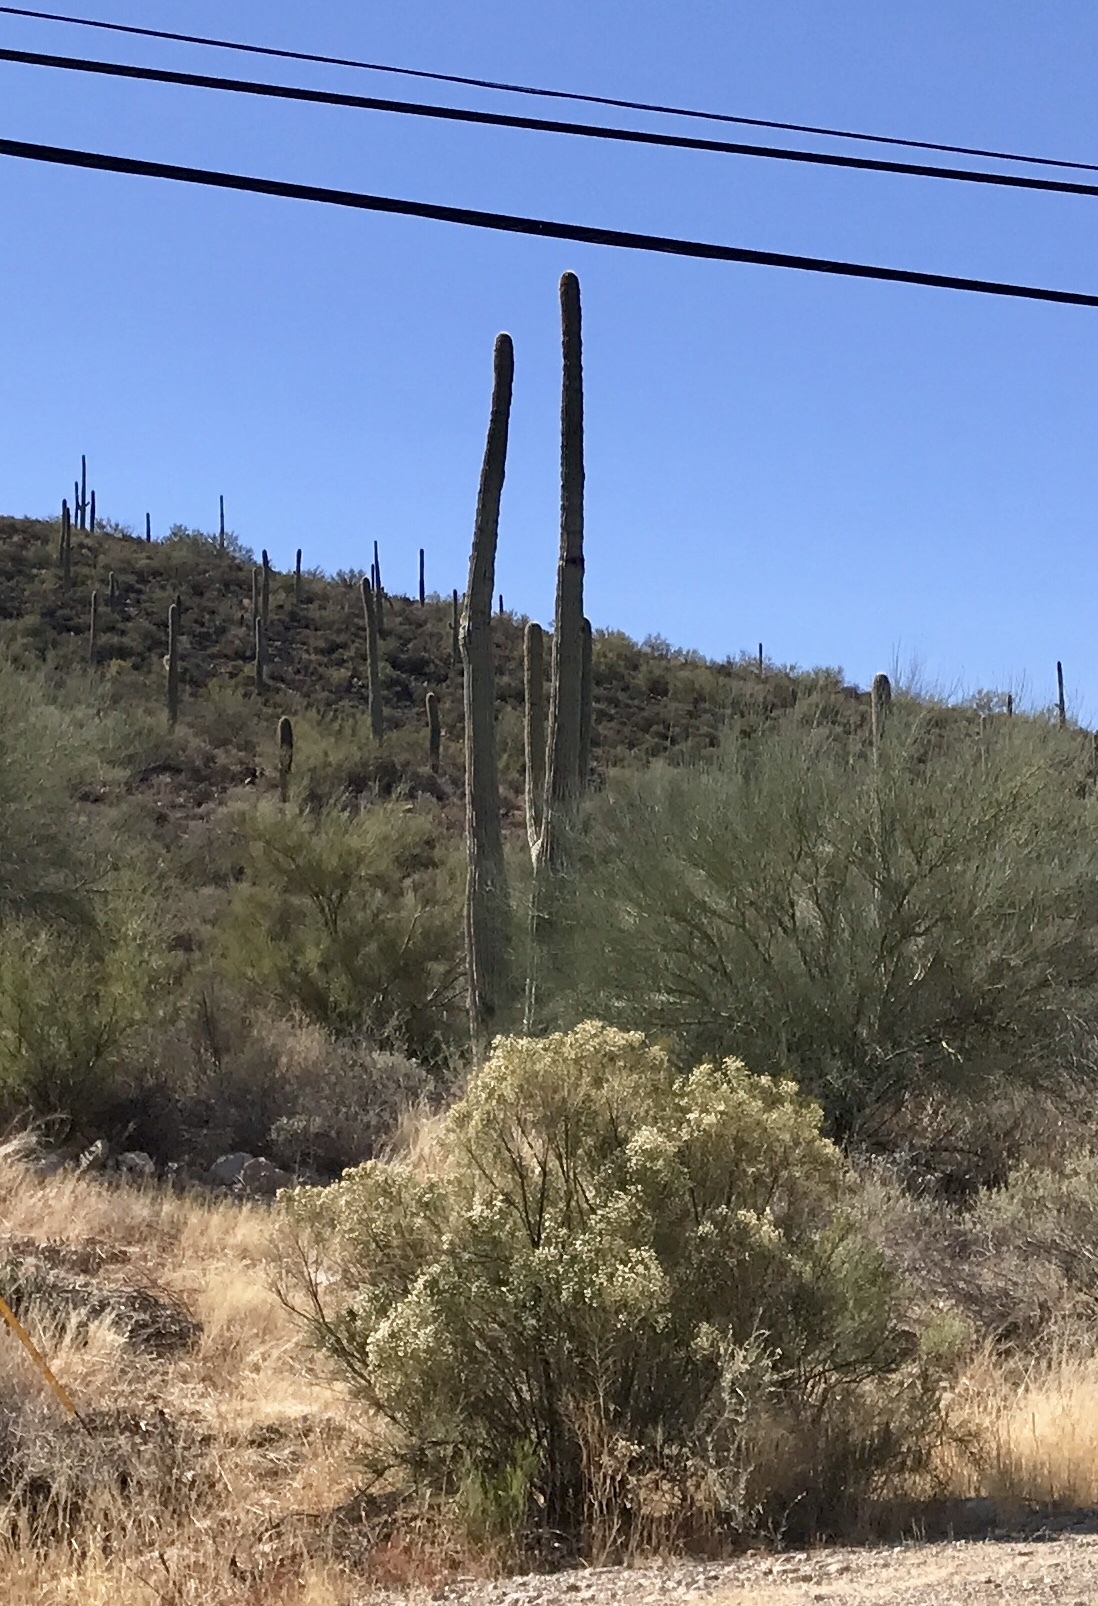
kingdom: Plantae
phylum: Tracheophyta
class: Magnoliopsida
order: Caryophyllales
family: Cactaceae
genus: Carnegiea
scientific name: Carnegiea gigantea
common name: Saguaro
